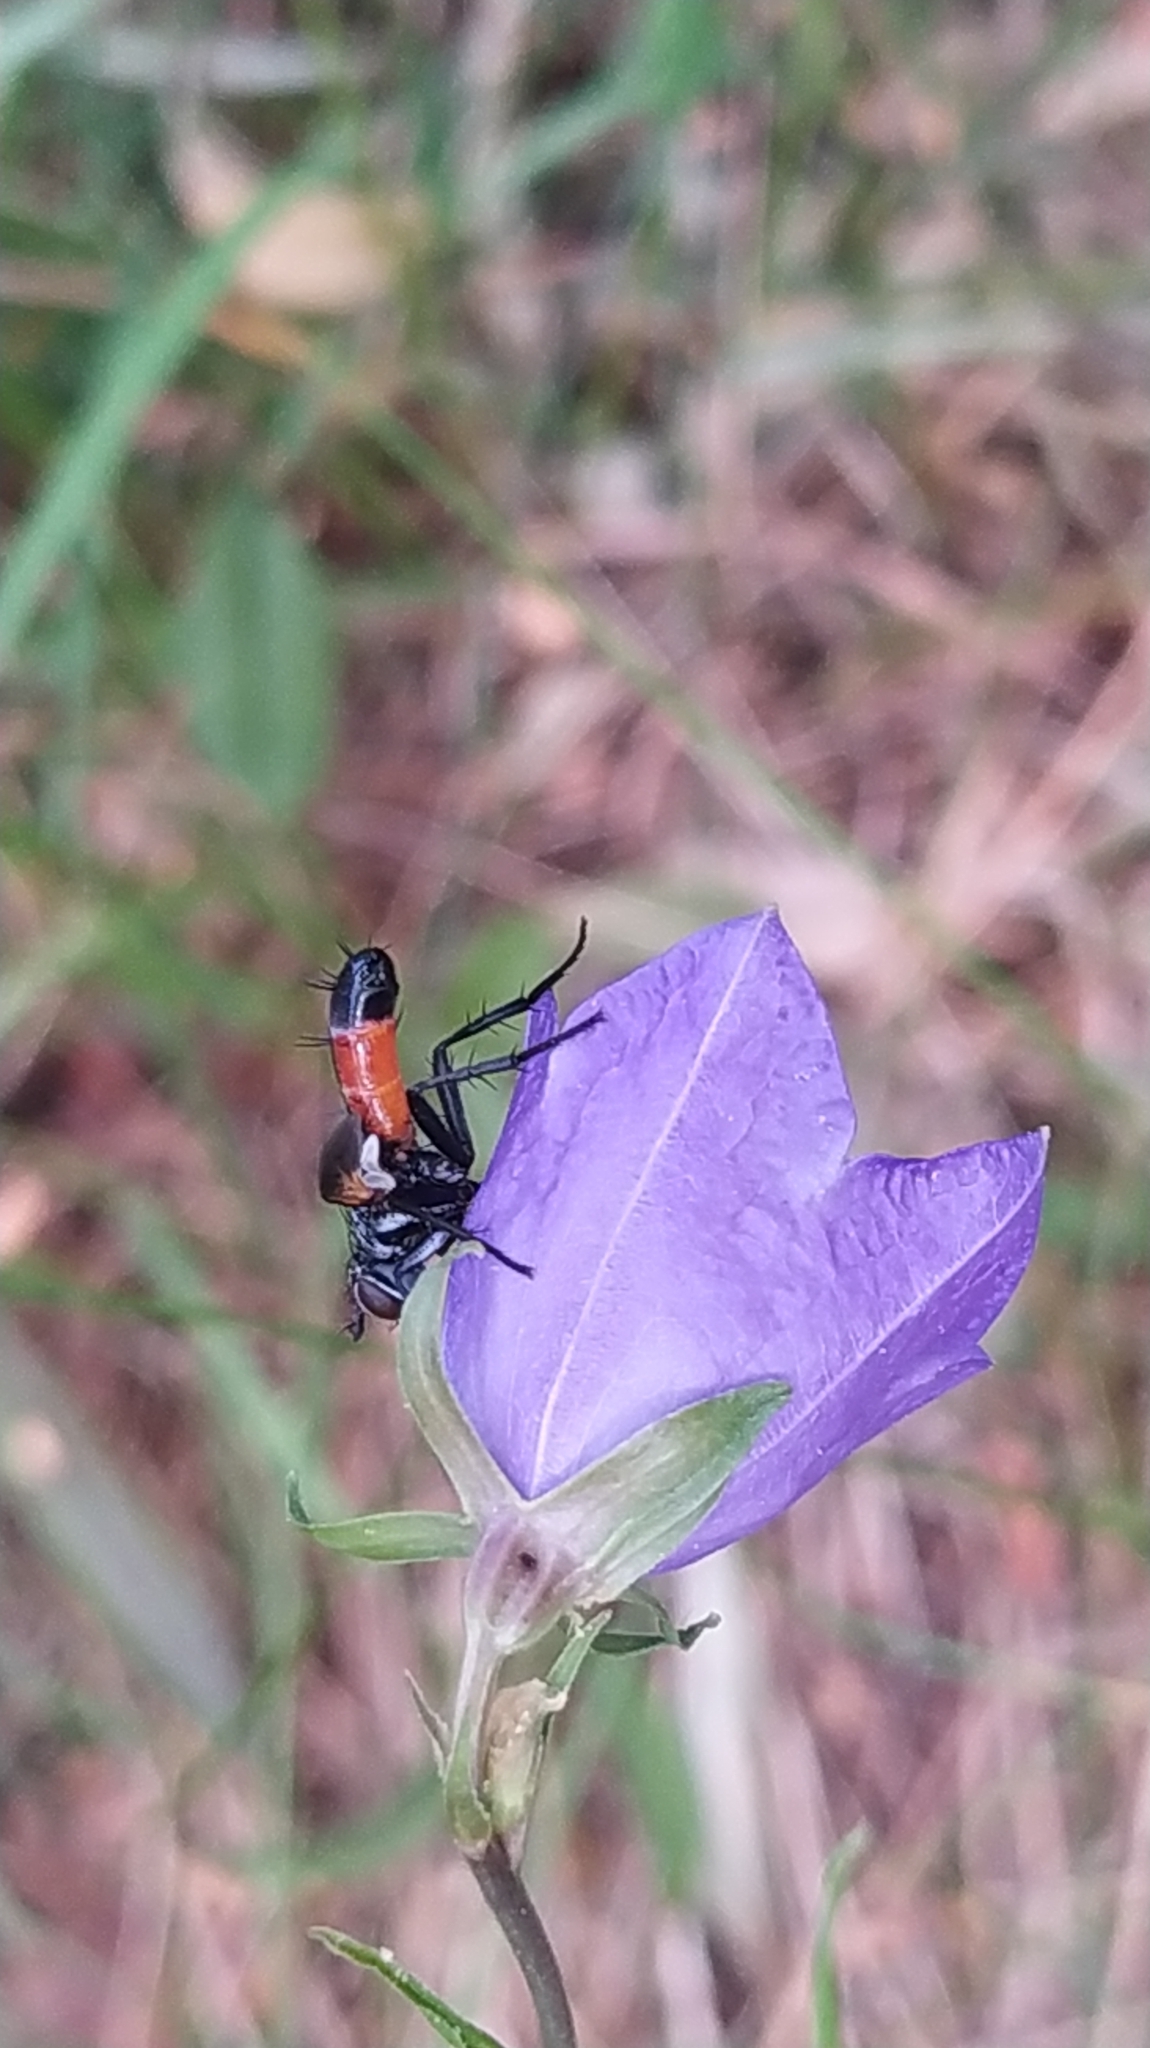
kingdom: Animalia
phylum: Arthropoda
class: Insecta
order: Diptera
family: Tachinidae
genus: Cylindromyia
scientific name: Cylindromyia brassicaria
